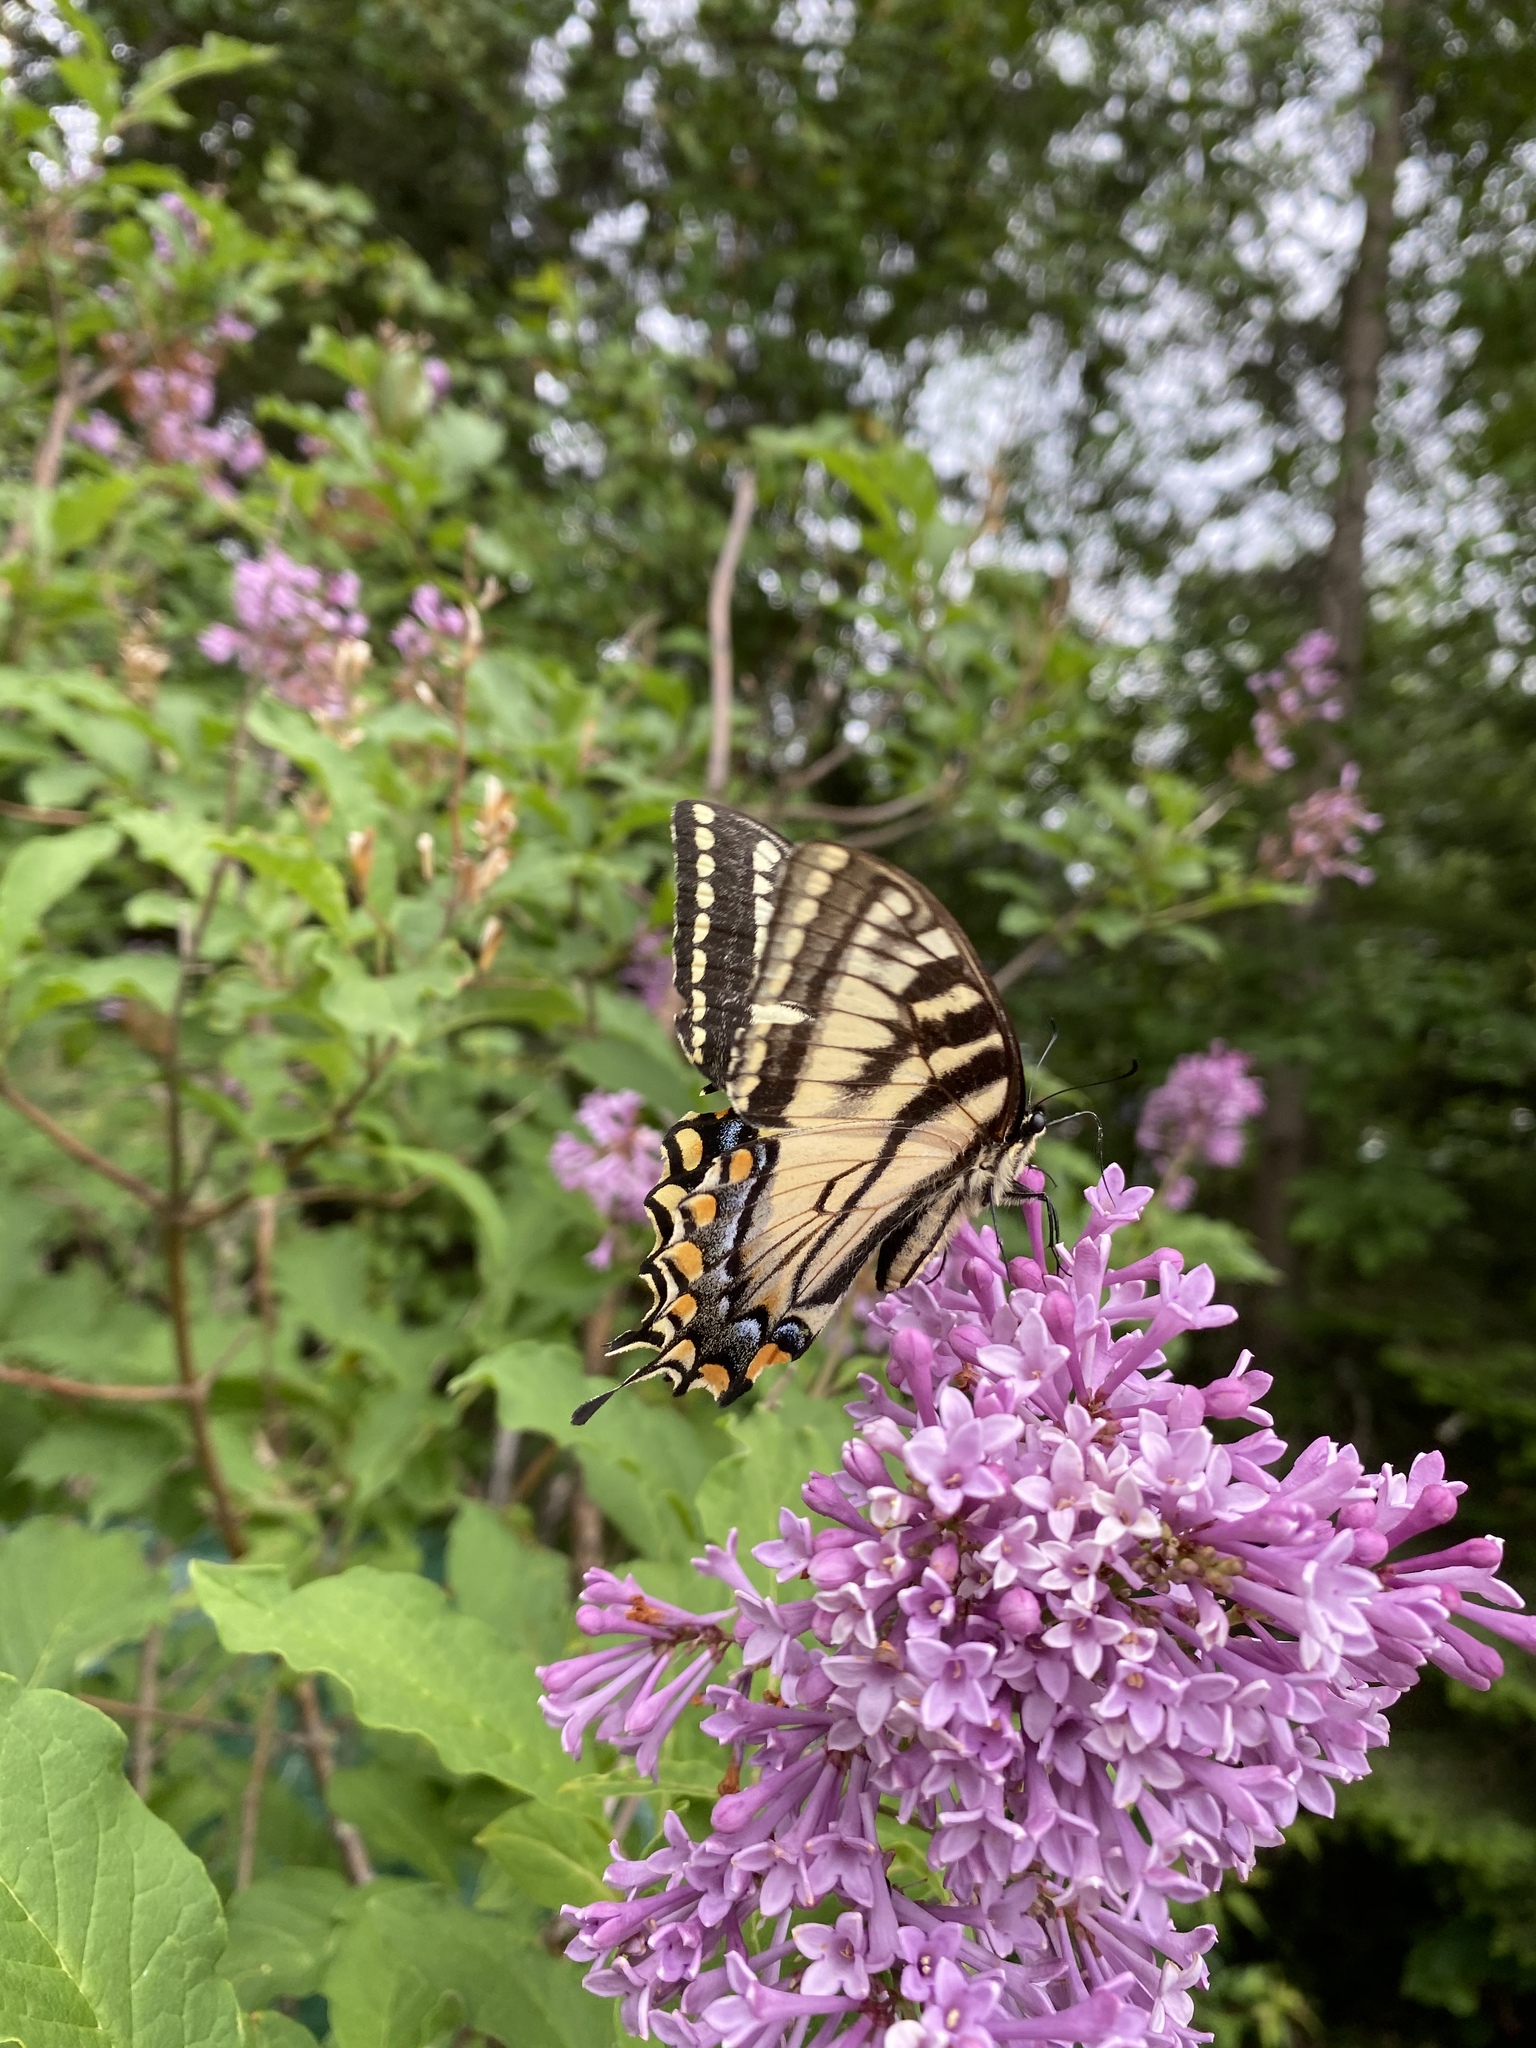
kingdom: Animalia
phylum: Arthropoda
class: Insecta
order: Lepidoptera
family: Papilionidae
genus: Papilio
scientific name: Papilio canadensis
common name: Canadian tiger swallowtail
